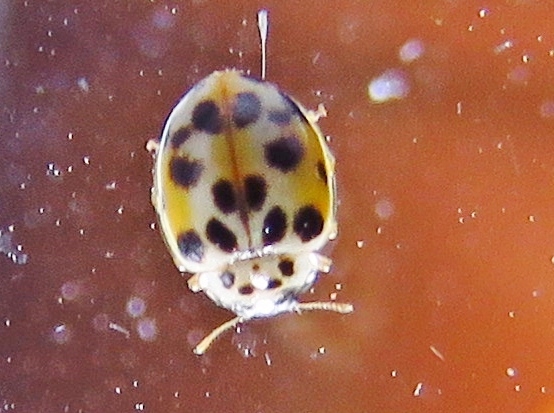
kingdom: Animalia
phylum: Arthropoda
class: Insecta
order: Coleoptera
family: Coccinellidae
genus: Psyllobora
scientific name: Psyllobora vigintimaculata
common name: Ladybird beetle
